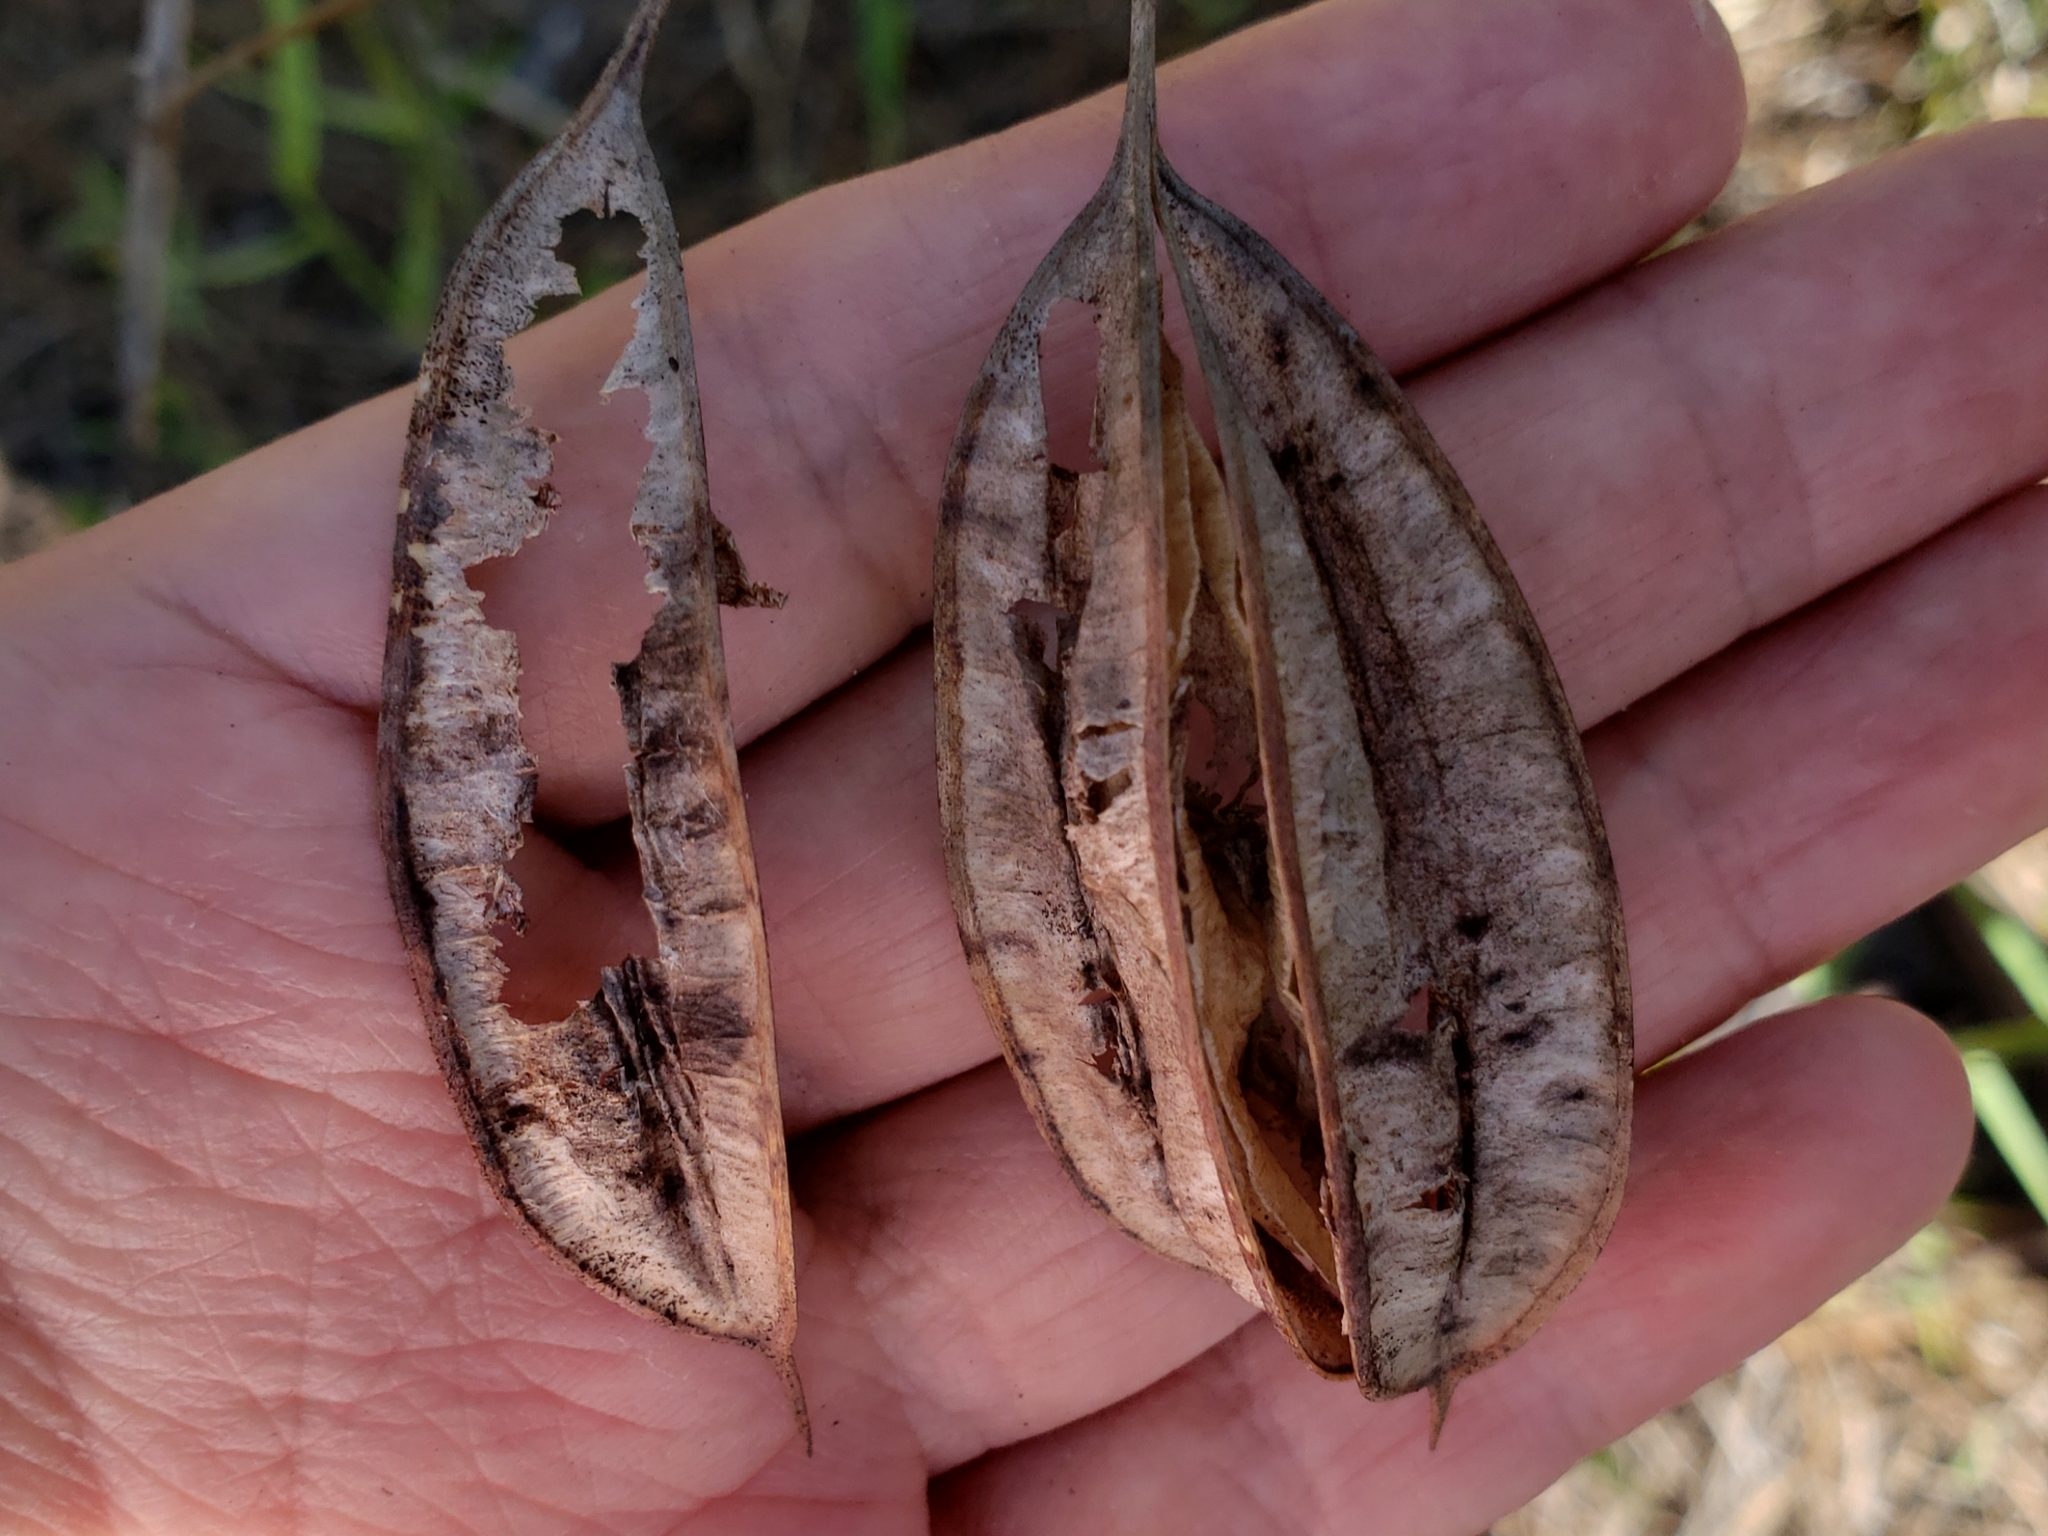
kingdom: Plantae
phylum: Tracheophyta
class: Magnoliopsida
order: Fabales
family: Fabaceae
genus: Sesbania
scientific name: Sesbania vesicaria
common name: Bagpod
